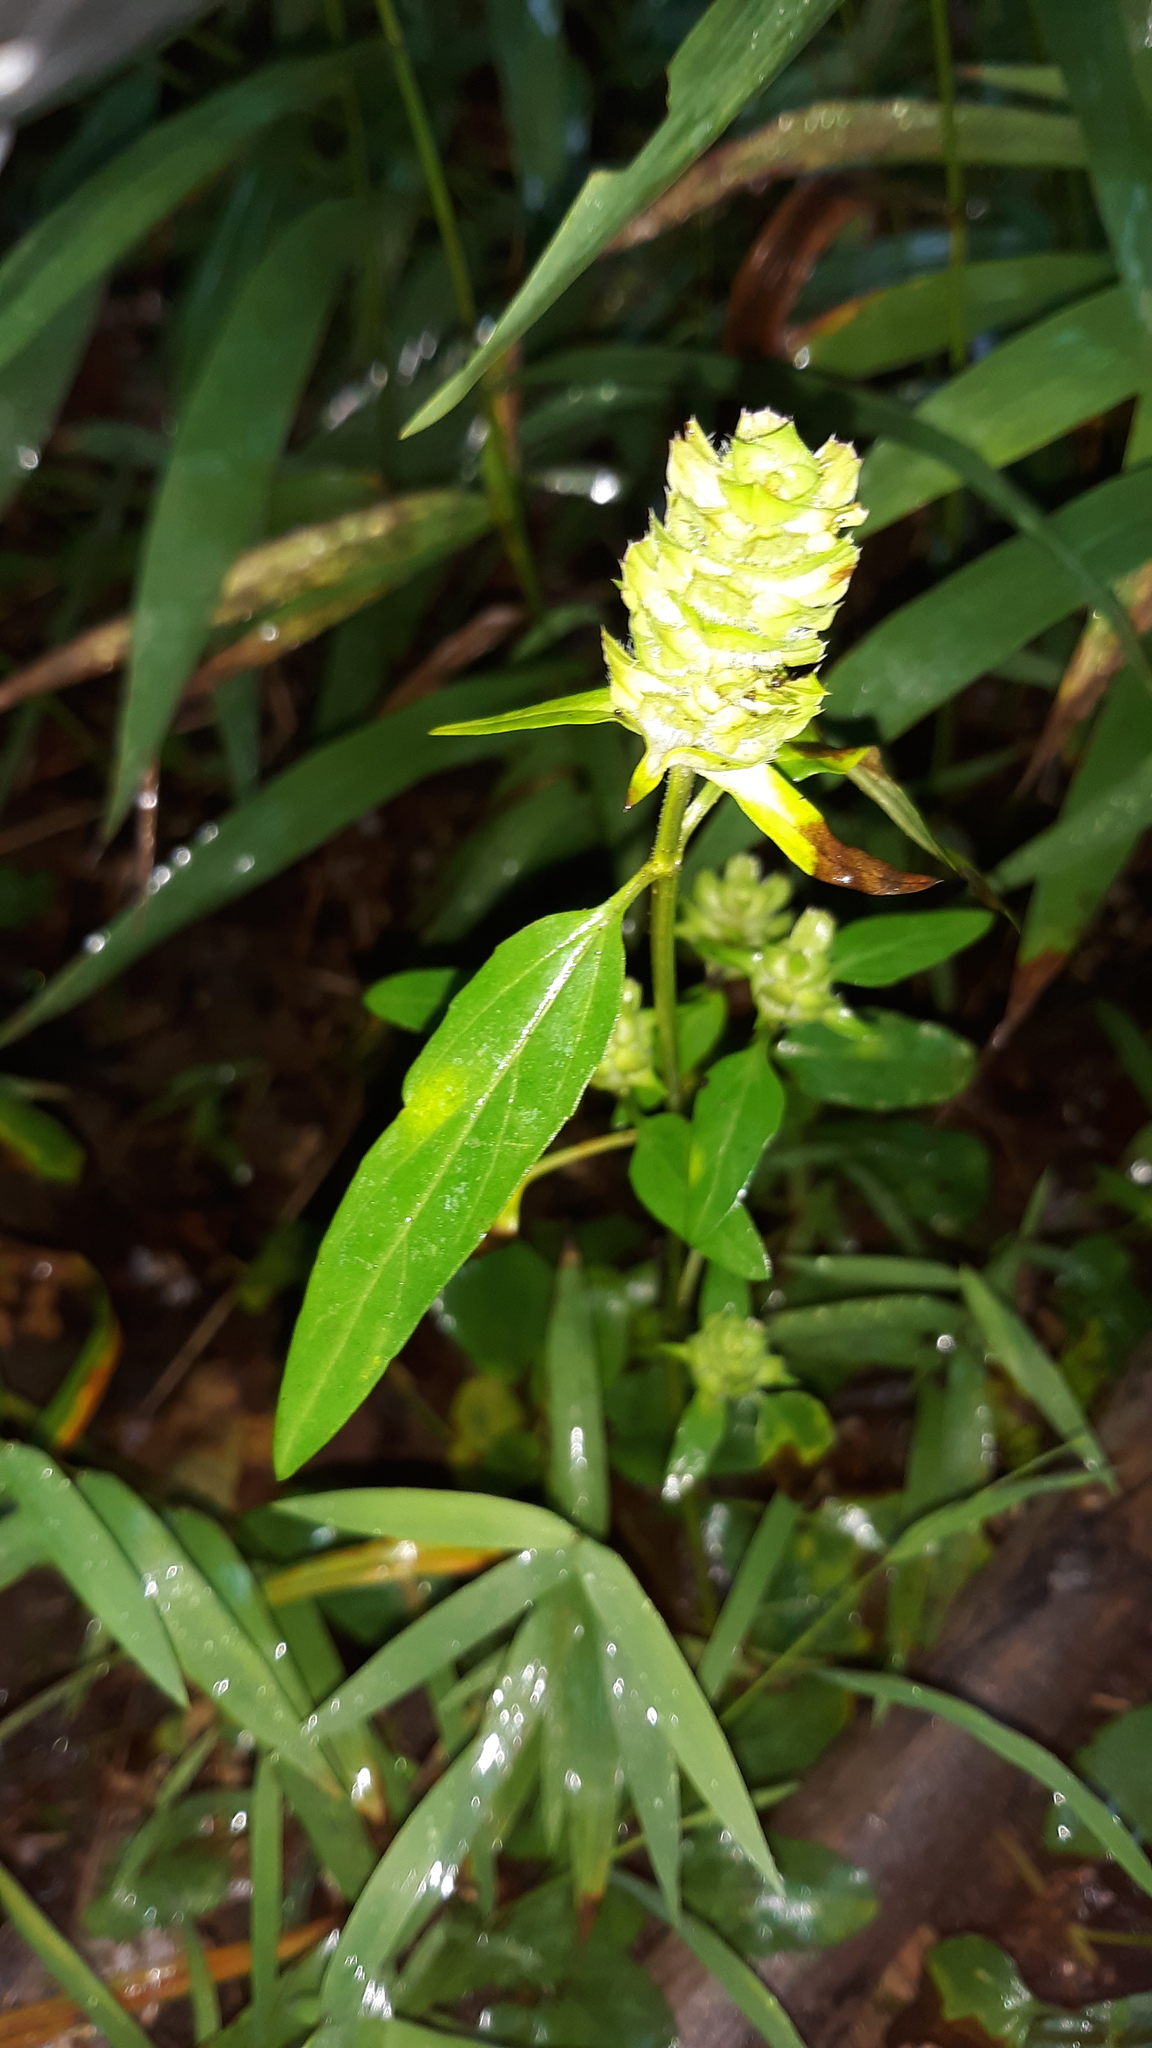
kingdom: Plantae
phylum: Tracheophyta
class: Magnoliopsida
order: Lamiales
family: Lamiaceae
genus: Prunella
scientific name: Prunella vulgaris
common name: Heal-all
